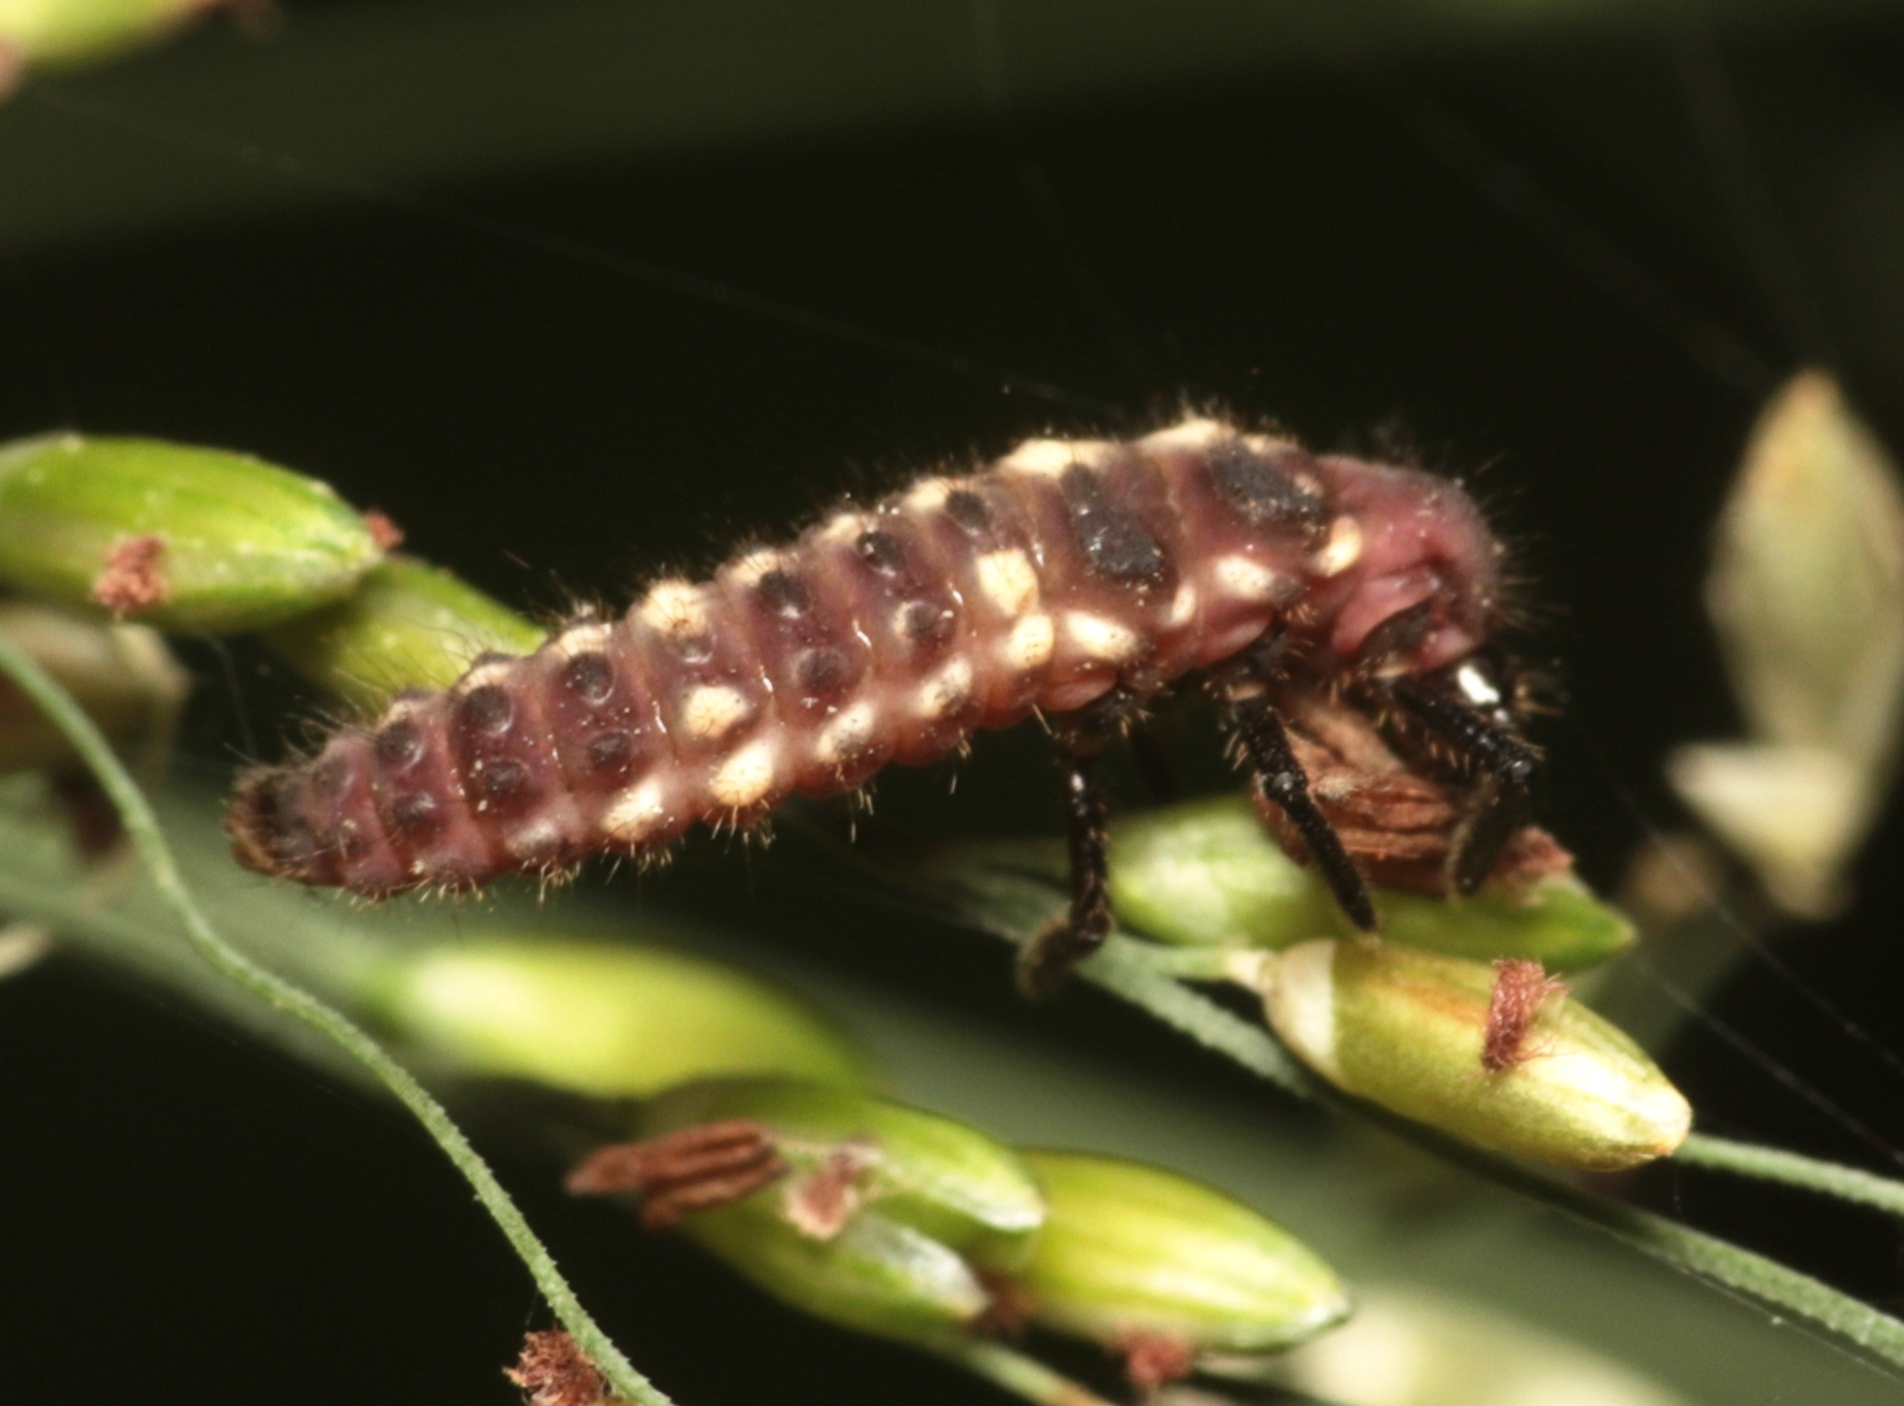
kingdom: Animalia
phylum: Arthropoda
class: Insecta
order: Coleoptera
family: Coccinellidae
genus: Micraspis
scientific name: Micraspis frenata
